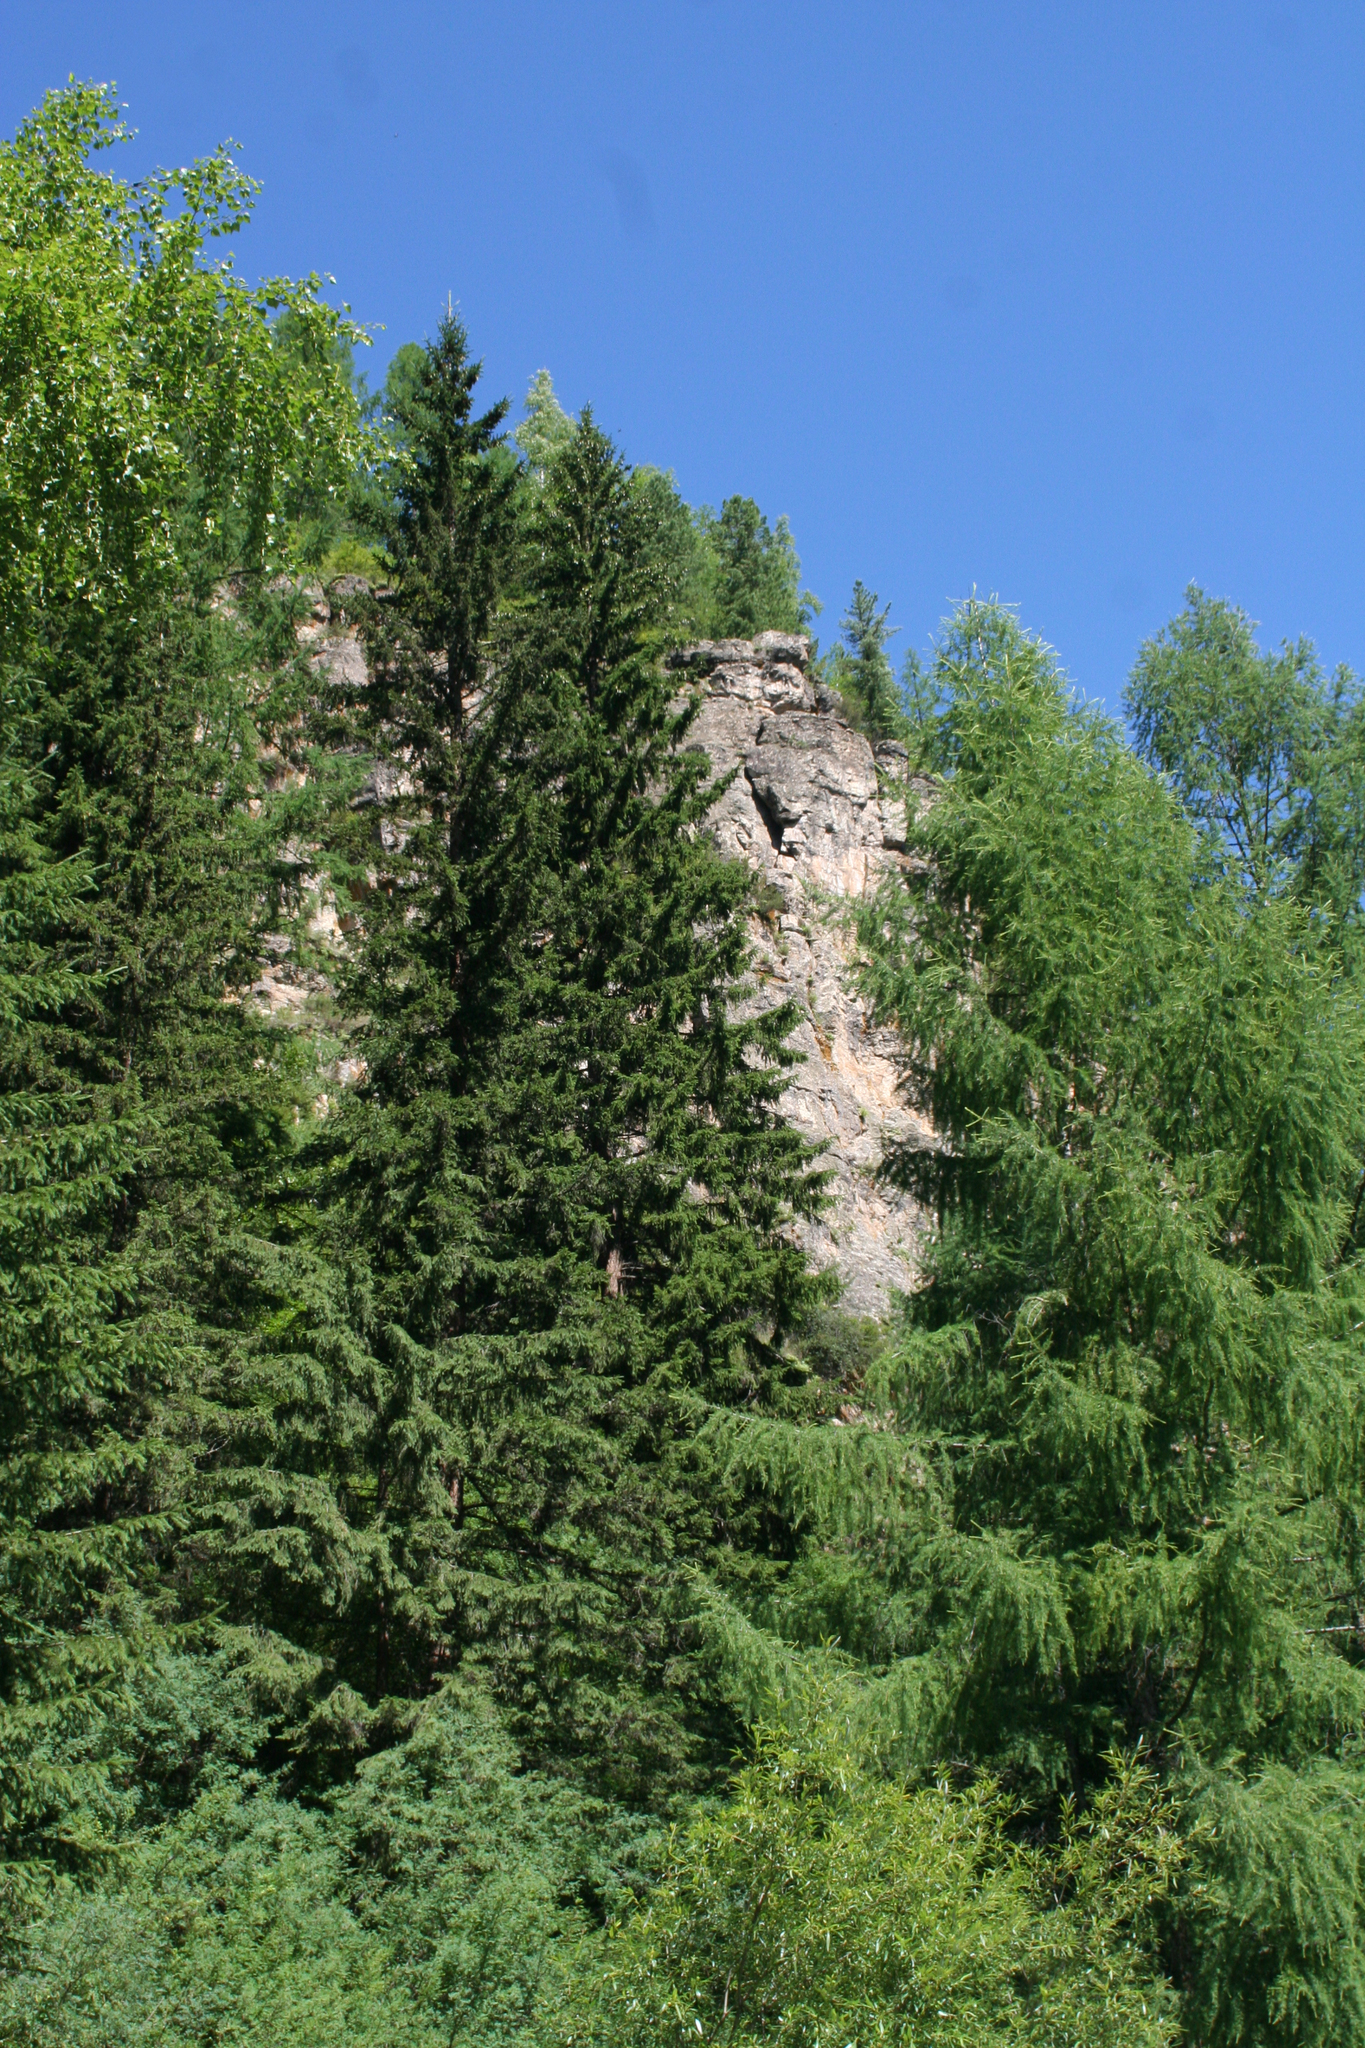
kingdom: Plantae
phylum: Tracheophyta
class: Pinopsida
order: Pinales
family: Pinaceae
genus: Picea
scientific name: Picea obovata
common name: Siberian spruce
